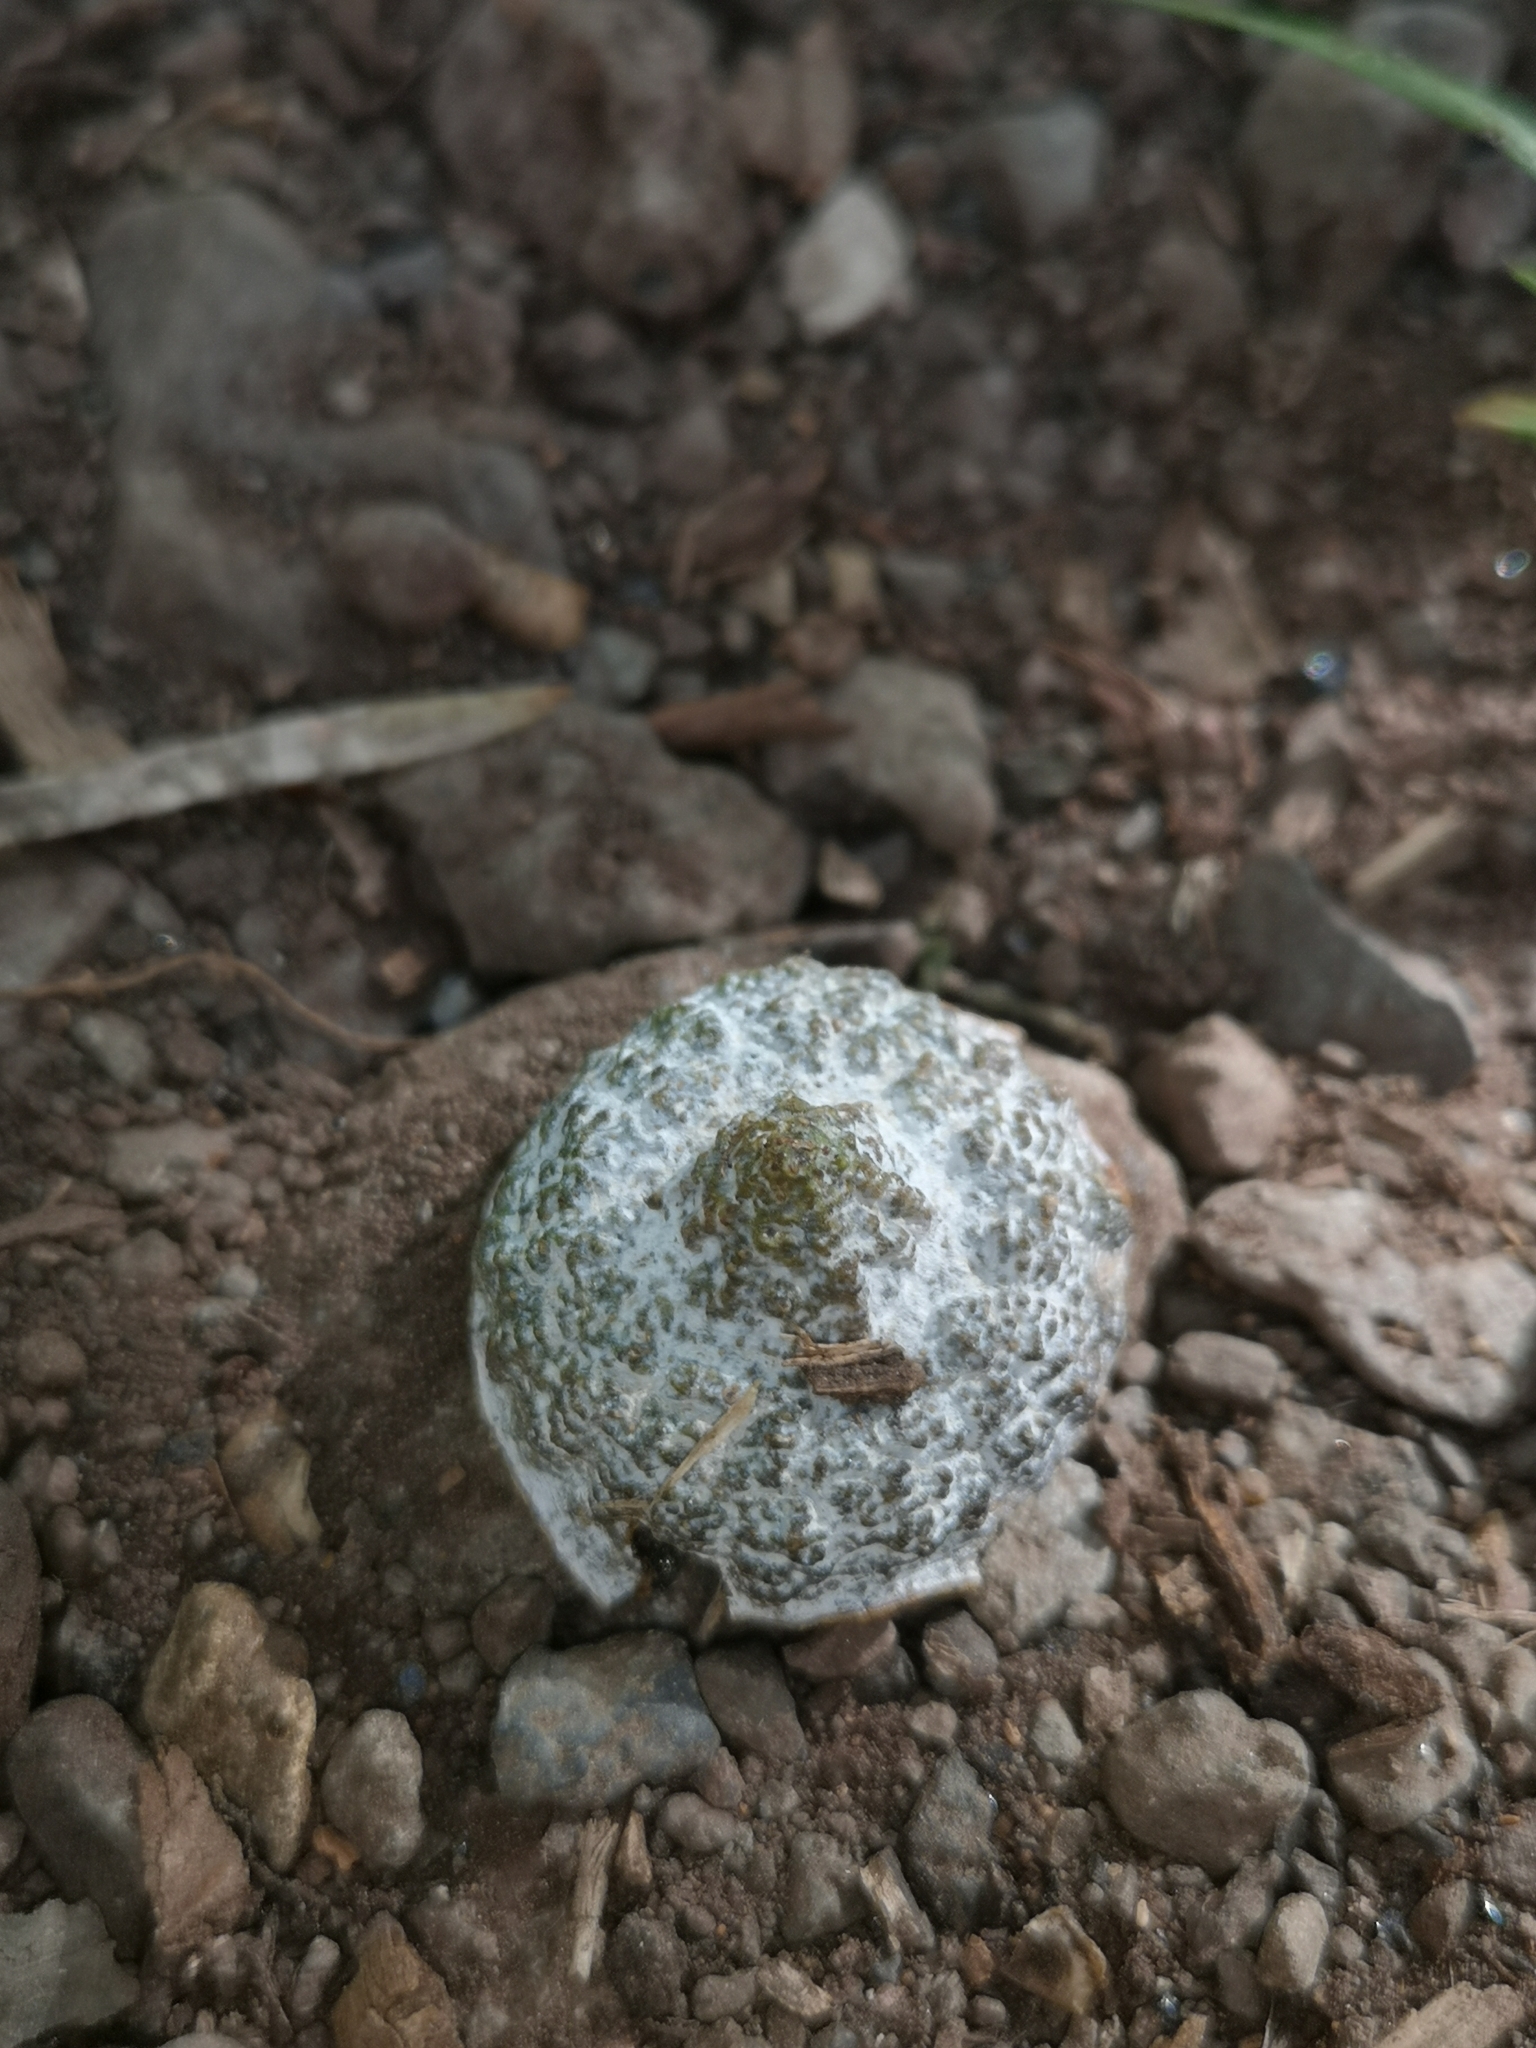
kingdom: Plantae
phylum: Tracheophyta
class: Magnoliopsida
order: Myrtales
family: Myrtaceae
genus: Eucalyptus
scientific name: Eucalyptus globulus
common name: Southern blue-gum
